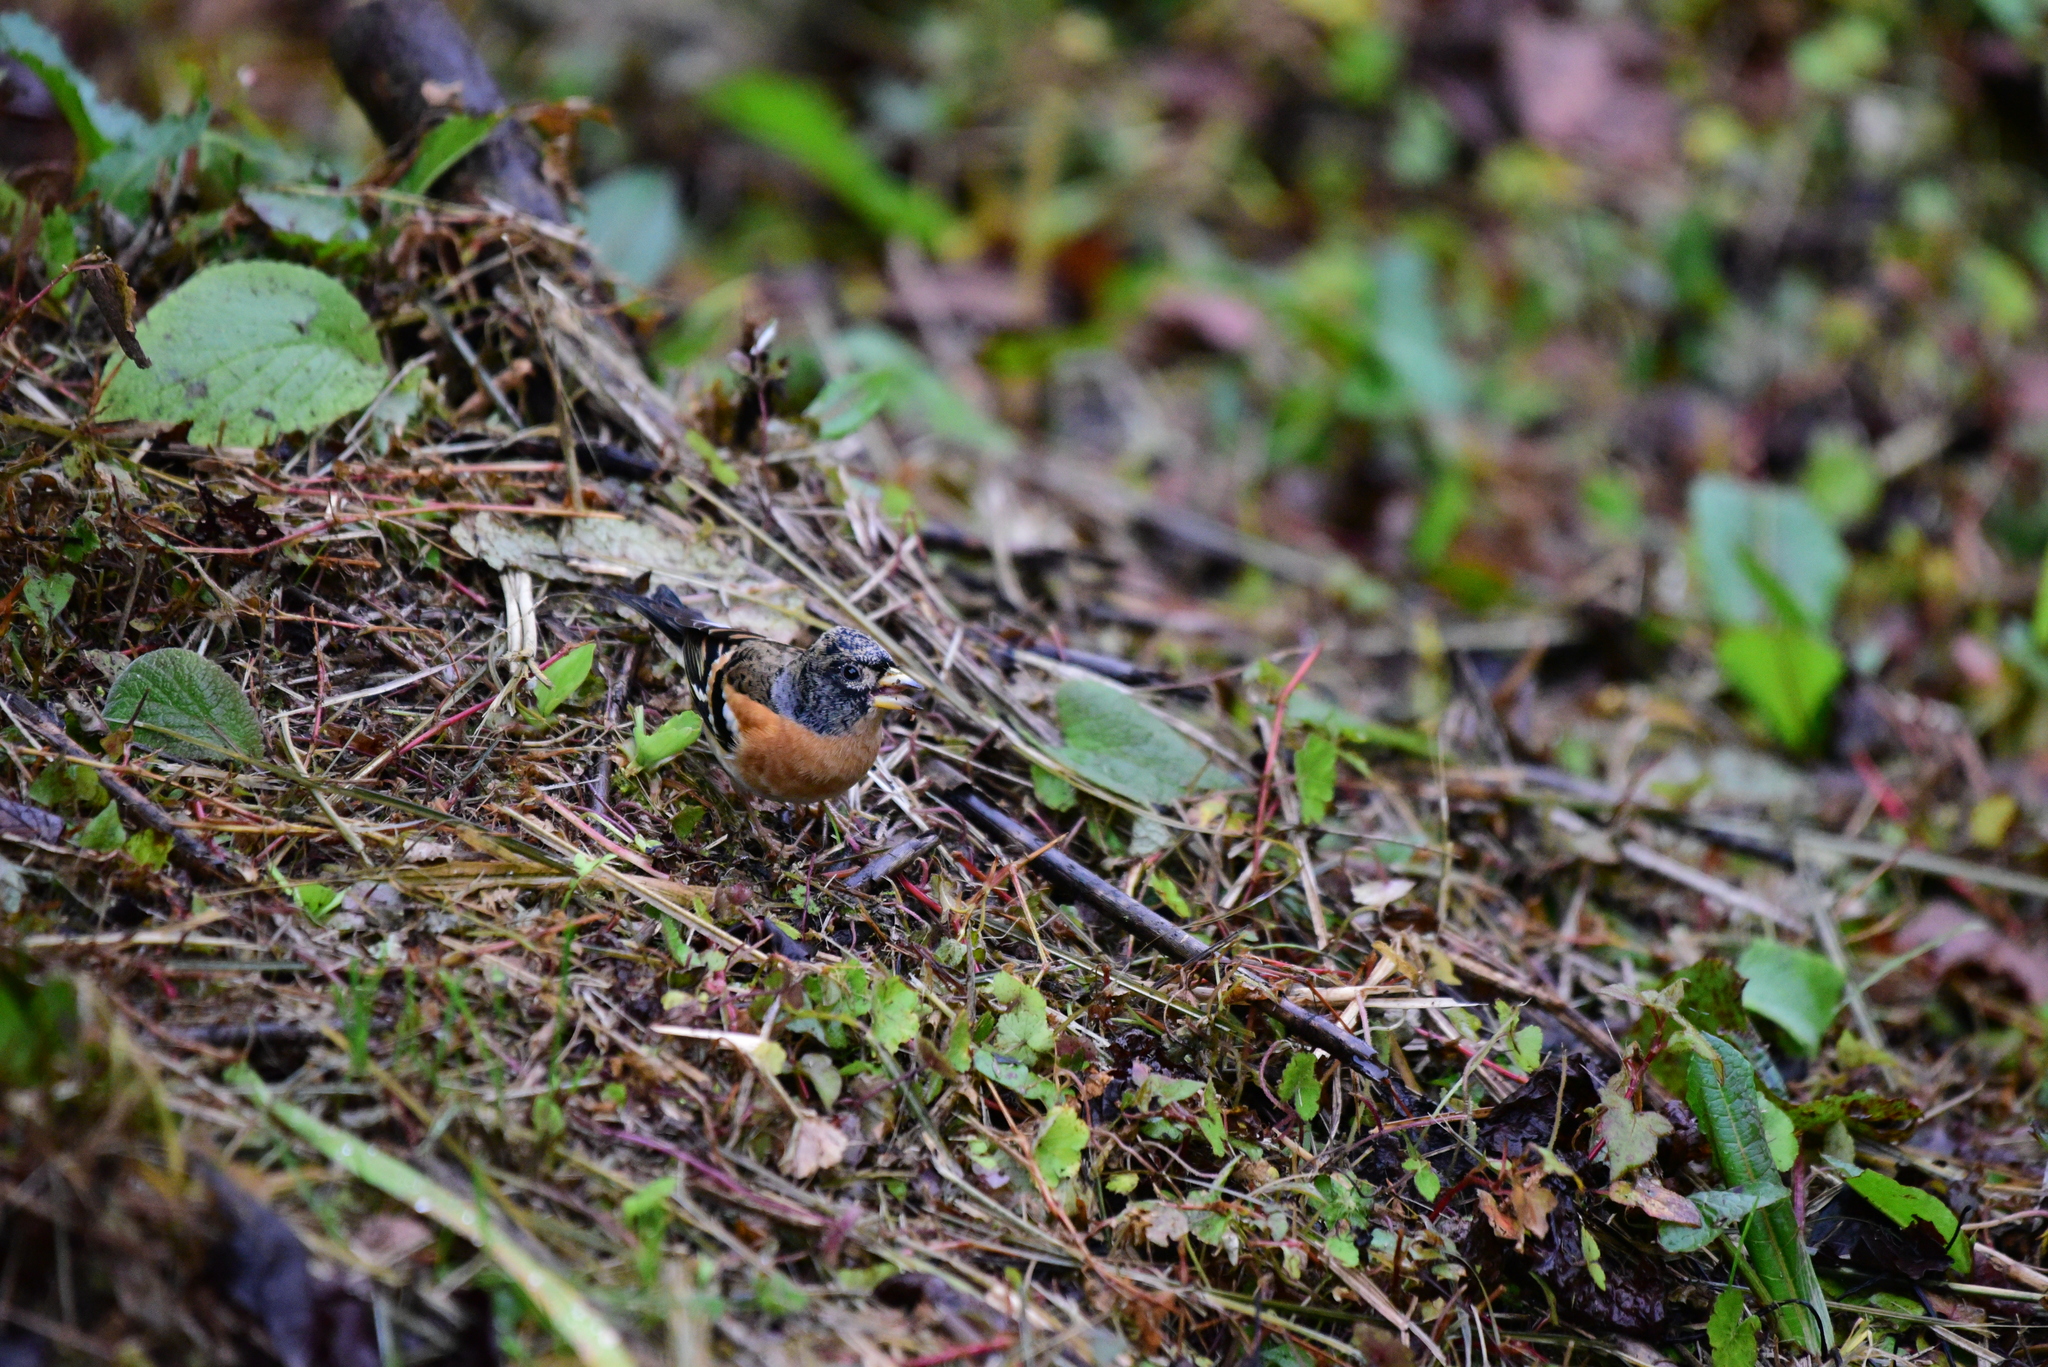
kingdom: Animalia
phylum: Chordata
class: Aves
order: Passeriformes
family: Fringillidae
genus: Fringilla
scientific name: Fringilla montifringilla
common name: Brambling
